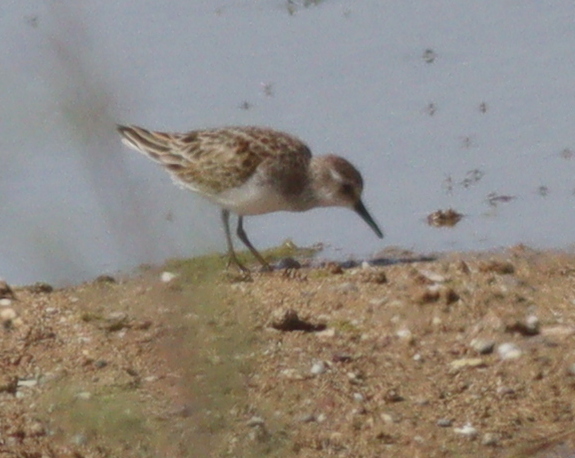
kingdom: Animalia
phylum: Chordata
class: Aves
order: Charadriiformes
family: Scolopacidae
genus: Calidris
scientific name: Calidris minuta
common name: Little stint
